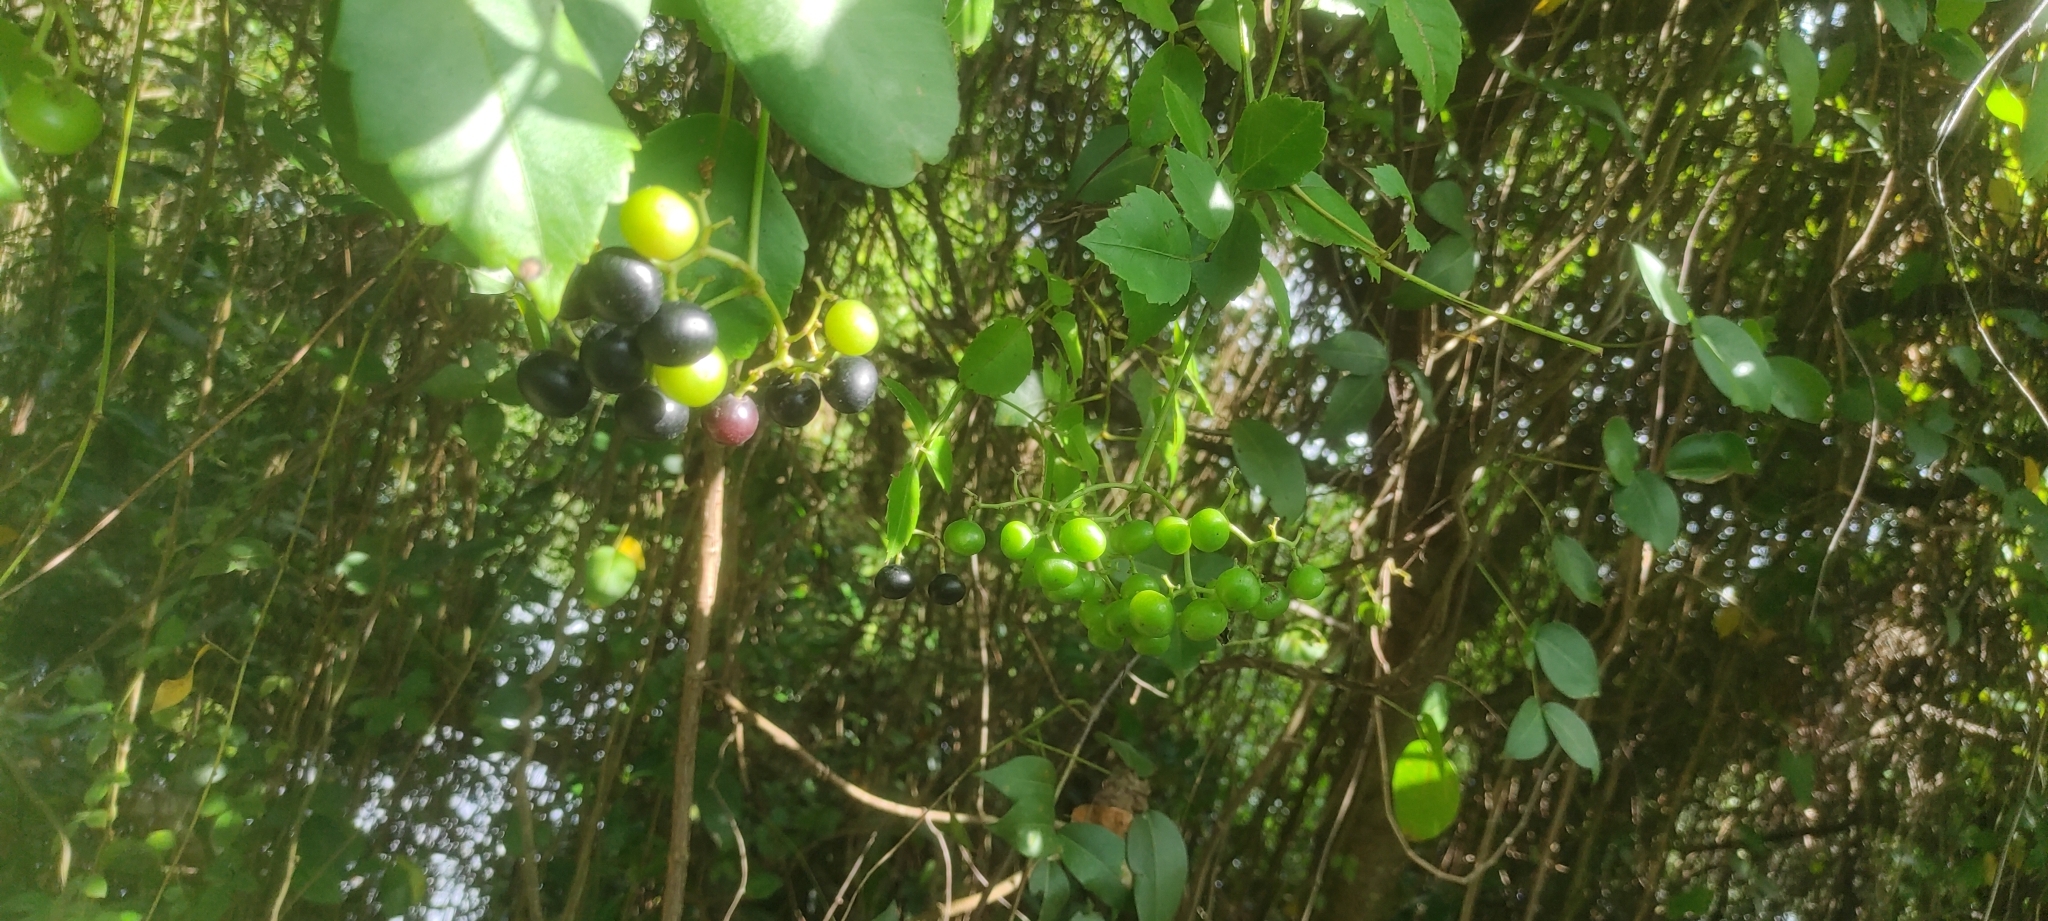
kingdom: Plantae
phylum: Tracheophyta
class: Magnoliopsida
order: Vitales
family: Vitaceae
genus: Causonis
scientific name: Causonis trifolia
